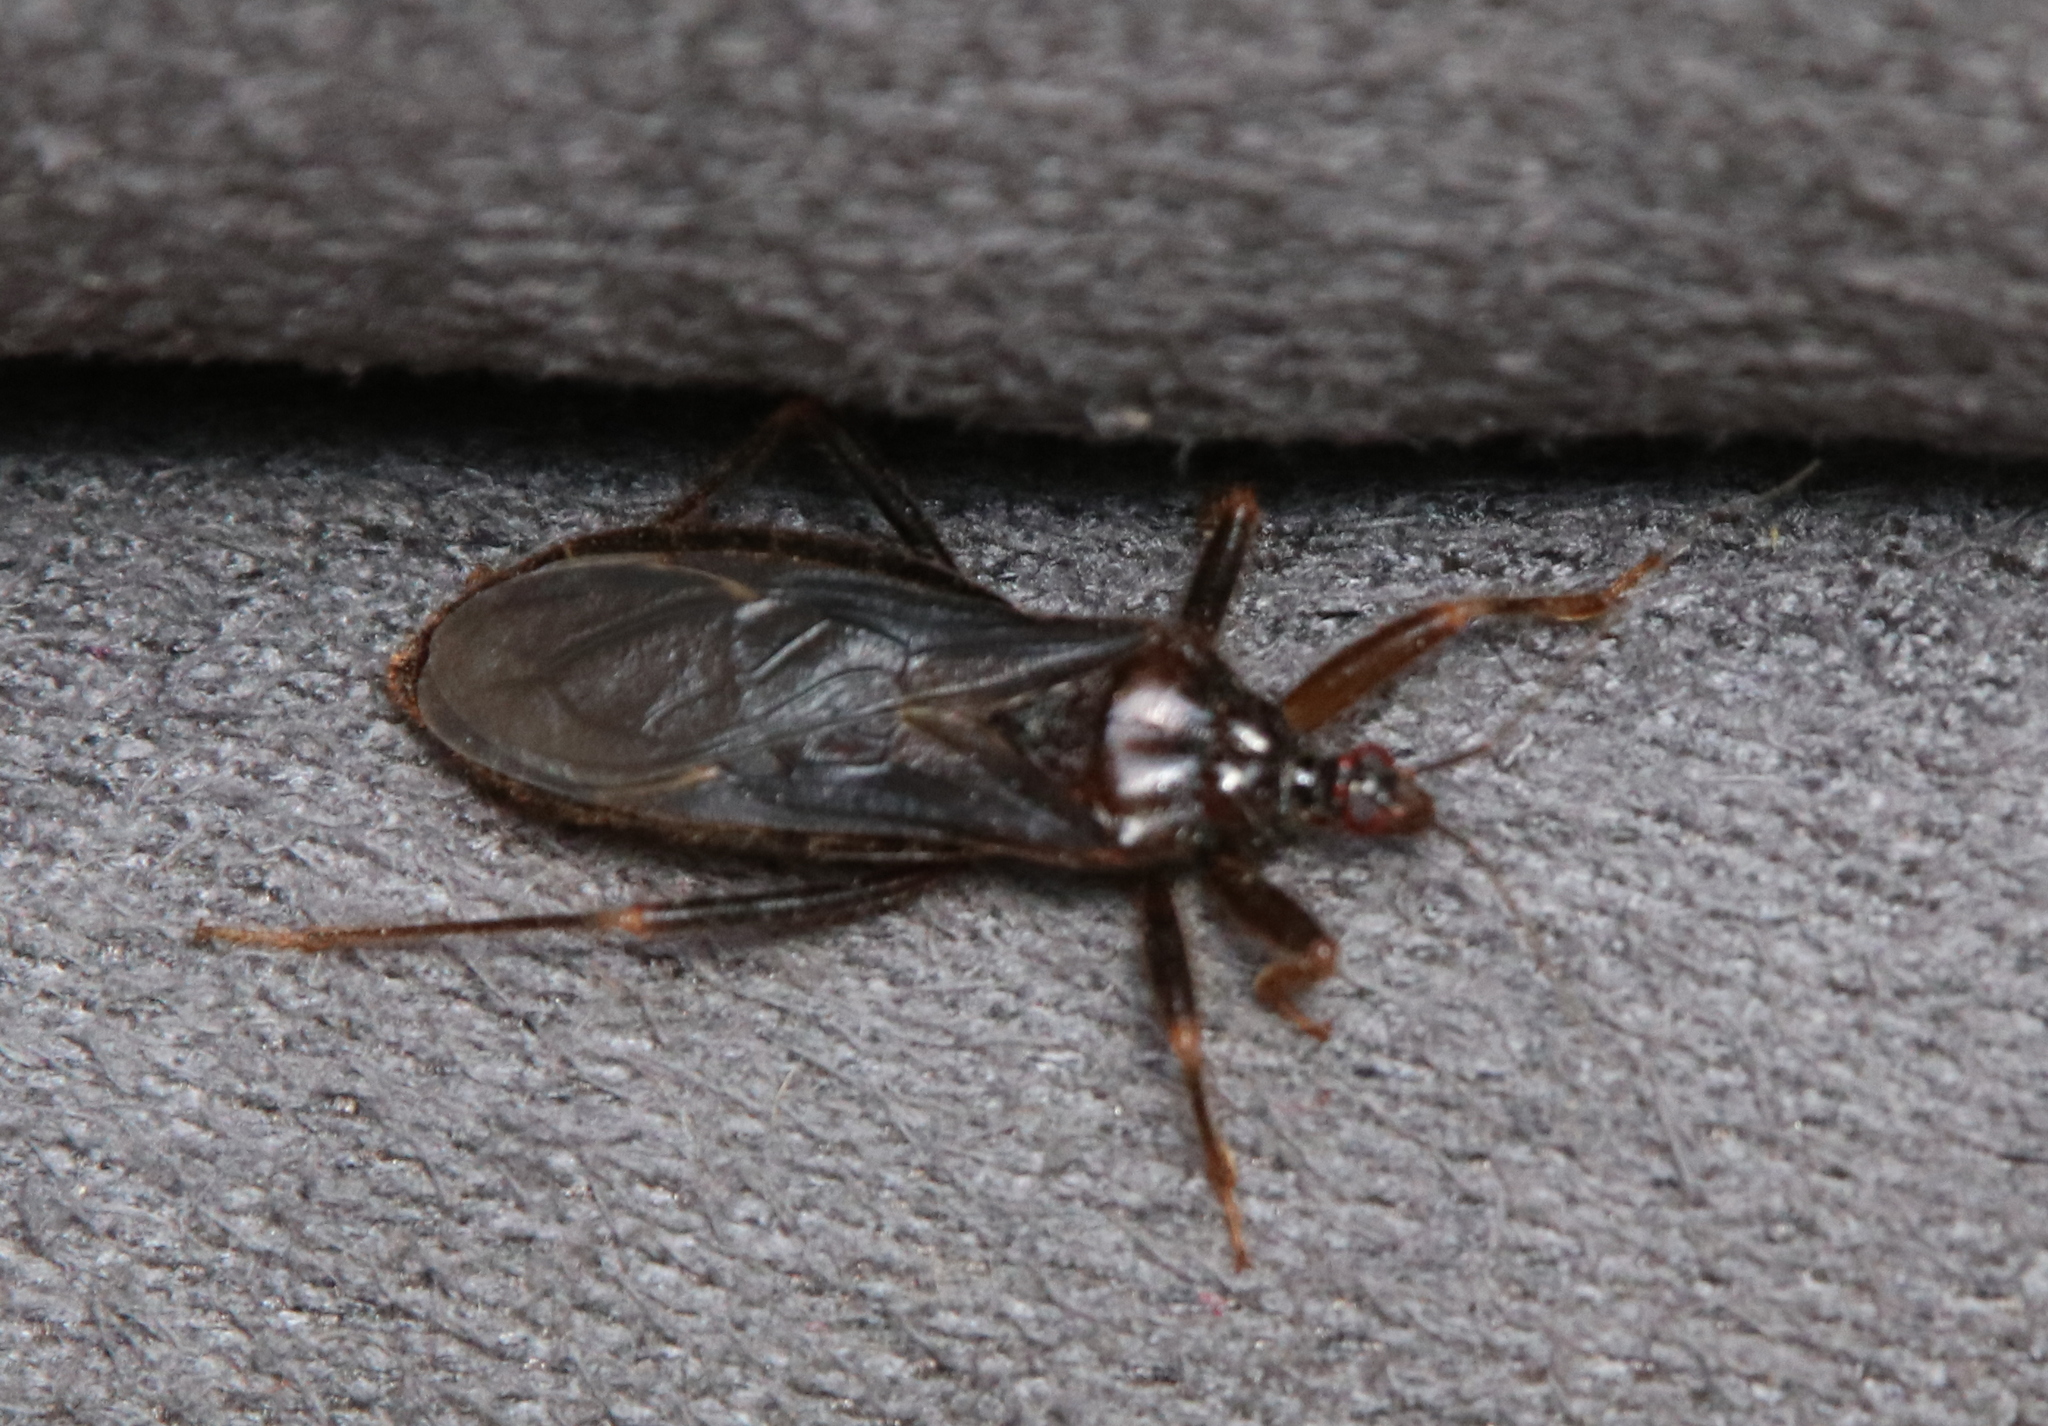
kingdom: Animalia
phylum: Arthropoda
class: Insecta
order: Hemiptera
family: Reduviidae
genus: Reduvius
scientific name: Reduvius personatus
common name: Masked hunter
